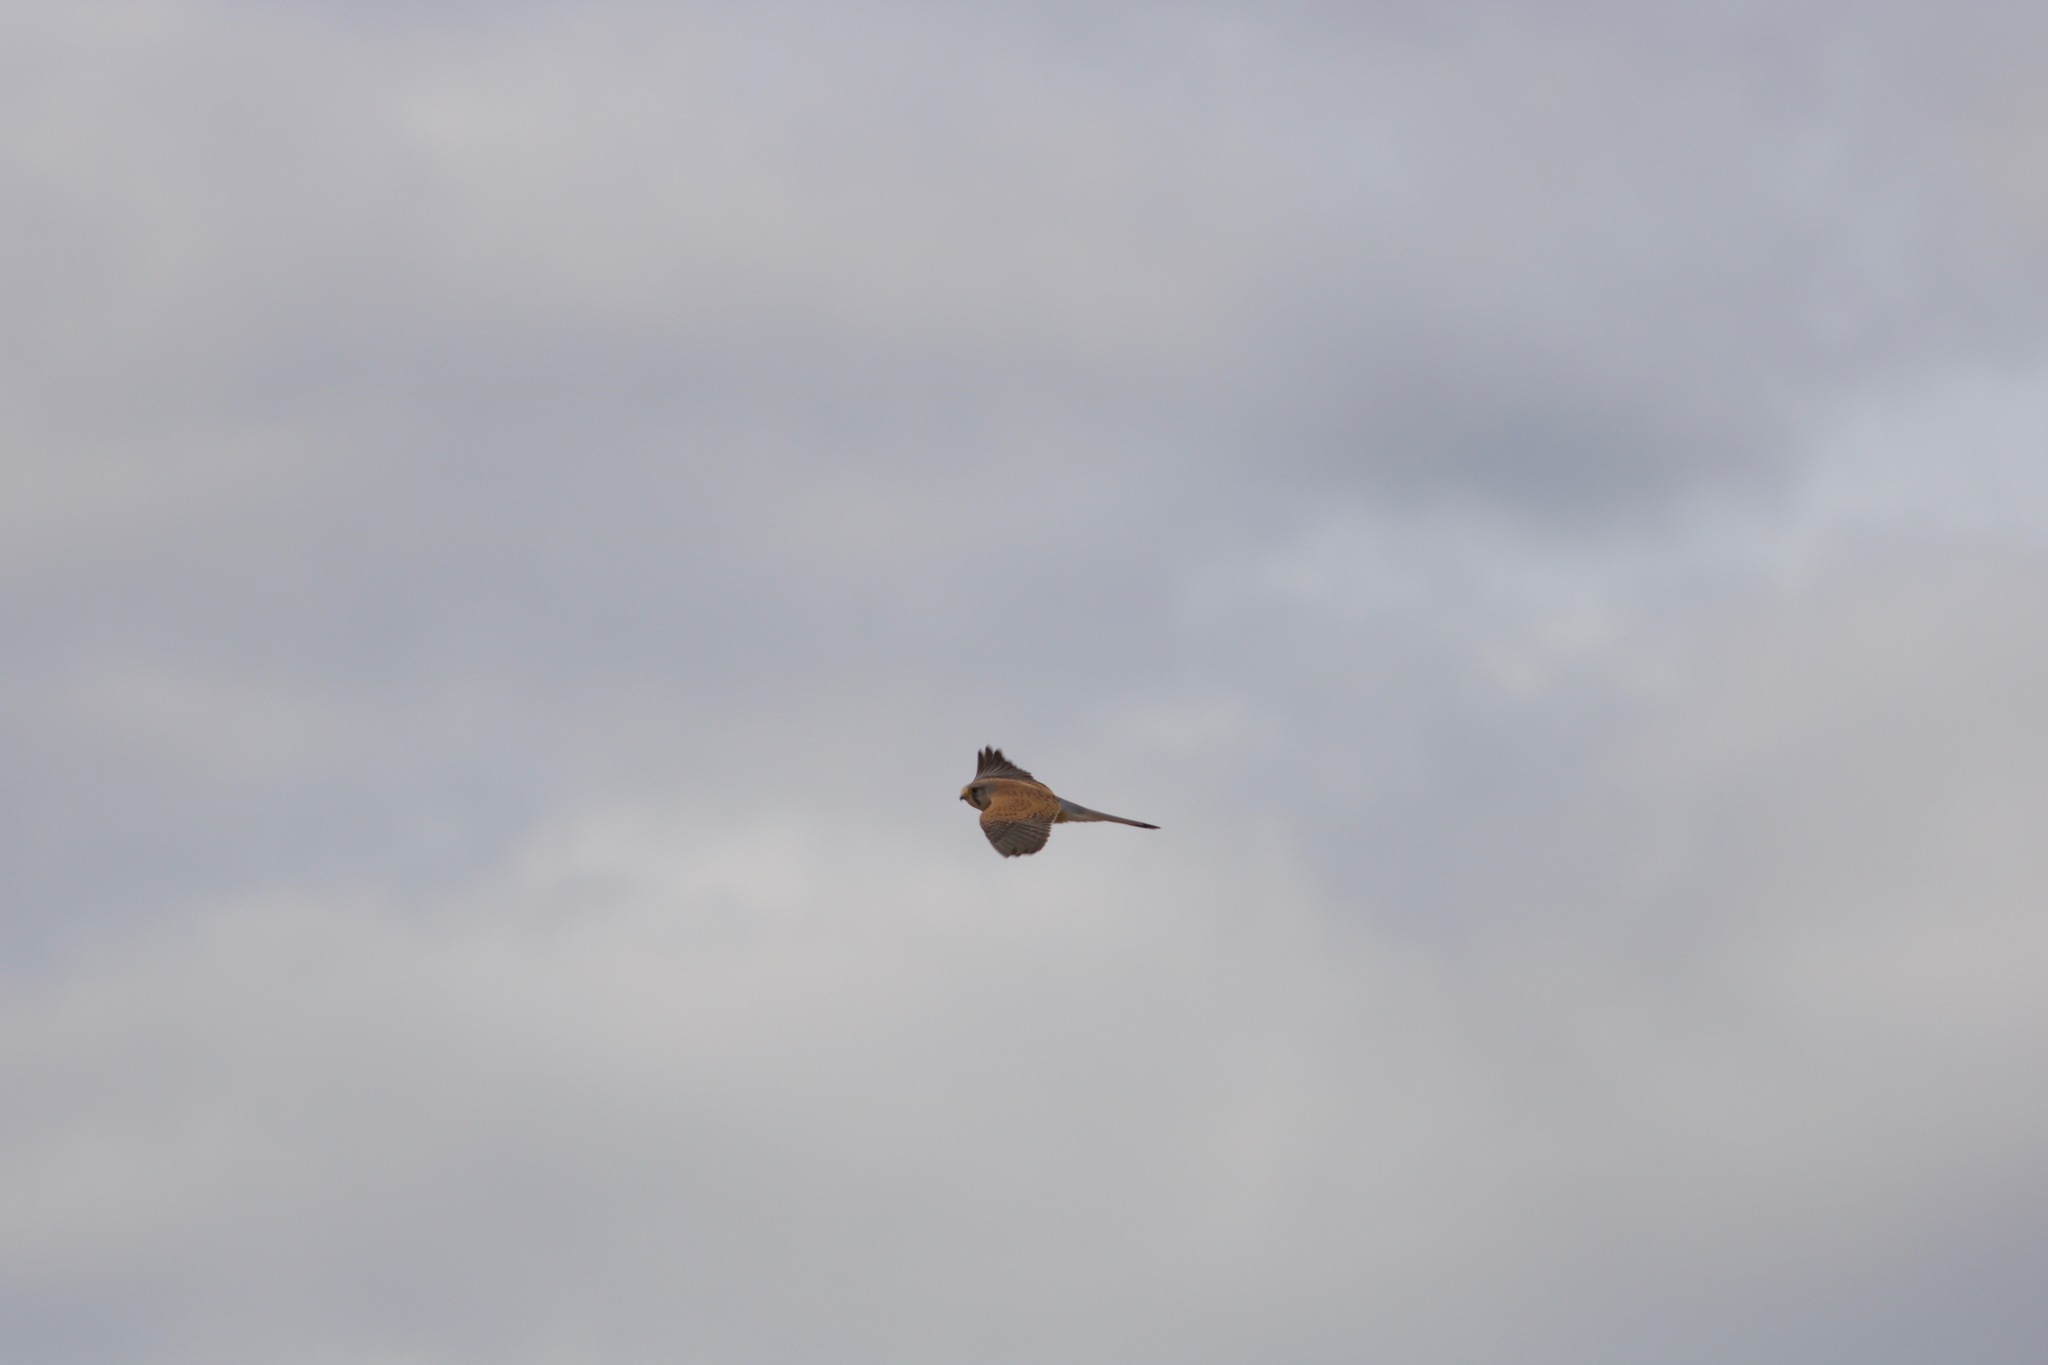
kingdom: Animalia
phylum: Chordata
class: Aves
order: Falconiformes
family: Falconidae
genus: Falco
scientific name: Falco tinnunculus
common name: Common kestrel
